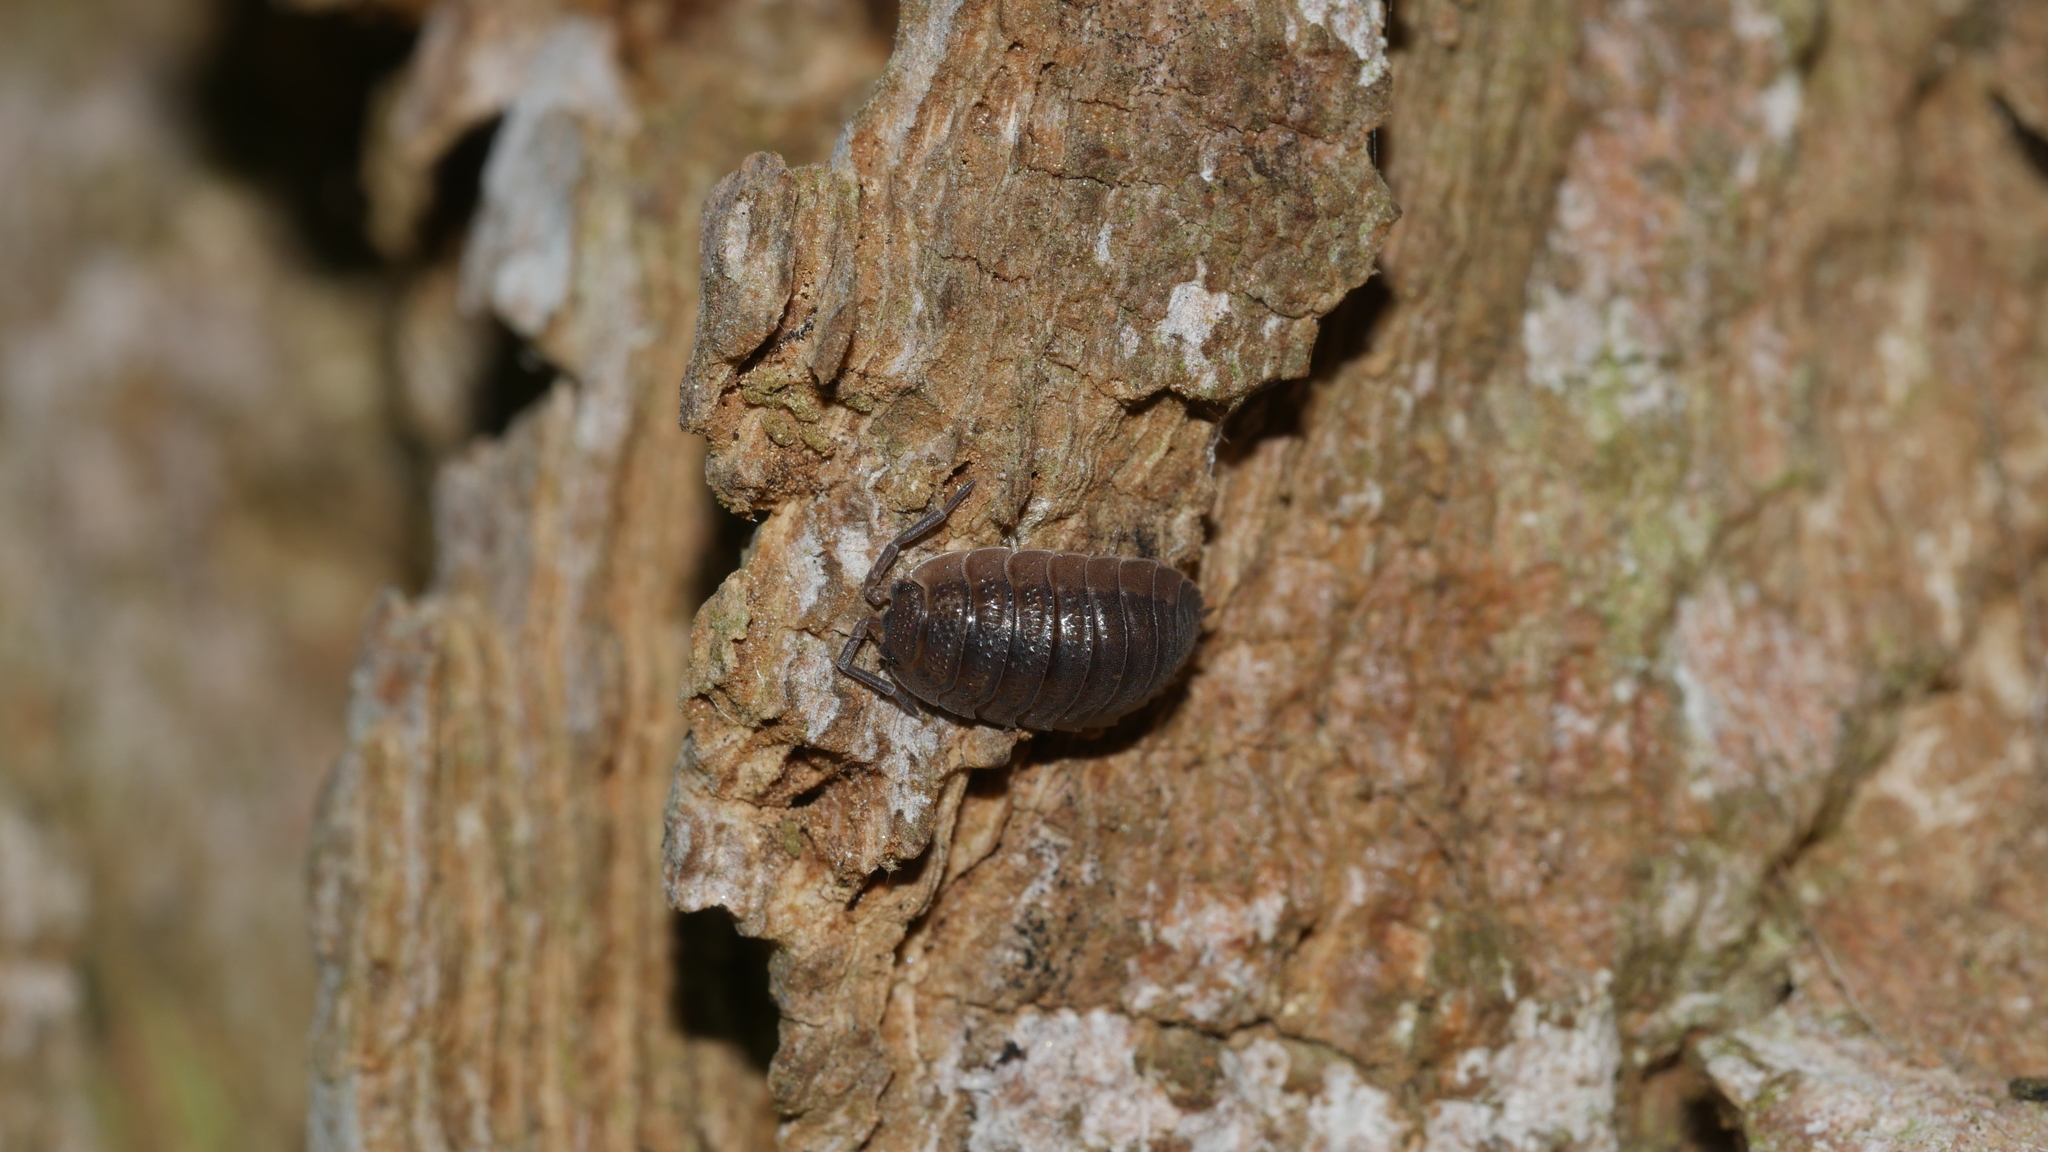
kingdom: Animalia
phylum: Arthropoda
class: Malacostraca
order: Isopoda
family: Porcellionidae
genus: Porcellio
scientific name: Porcellio scaber
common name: Common rough woodlouse
